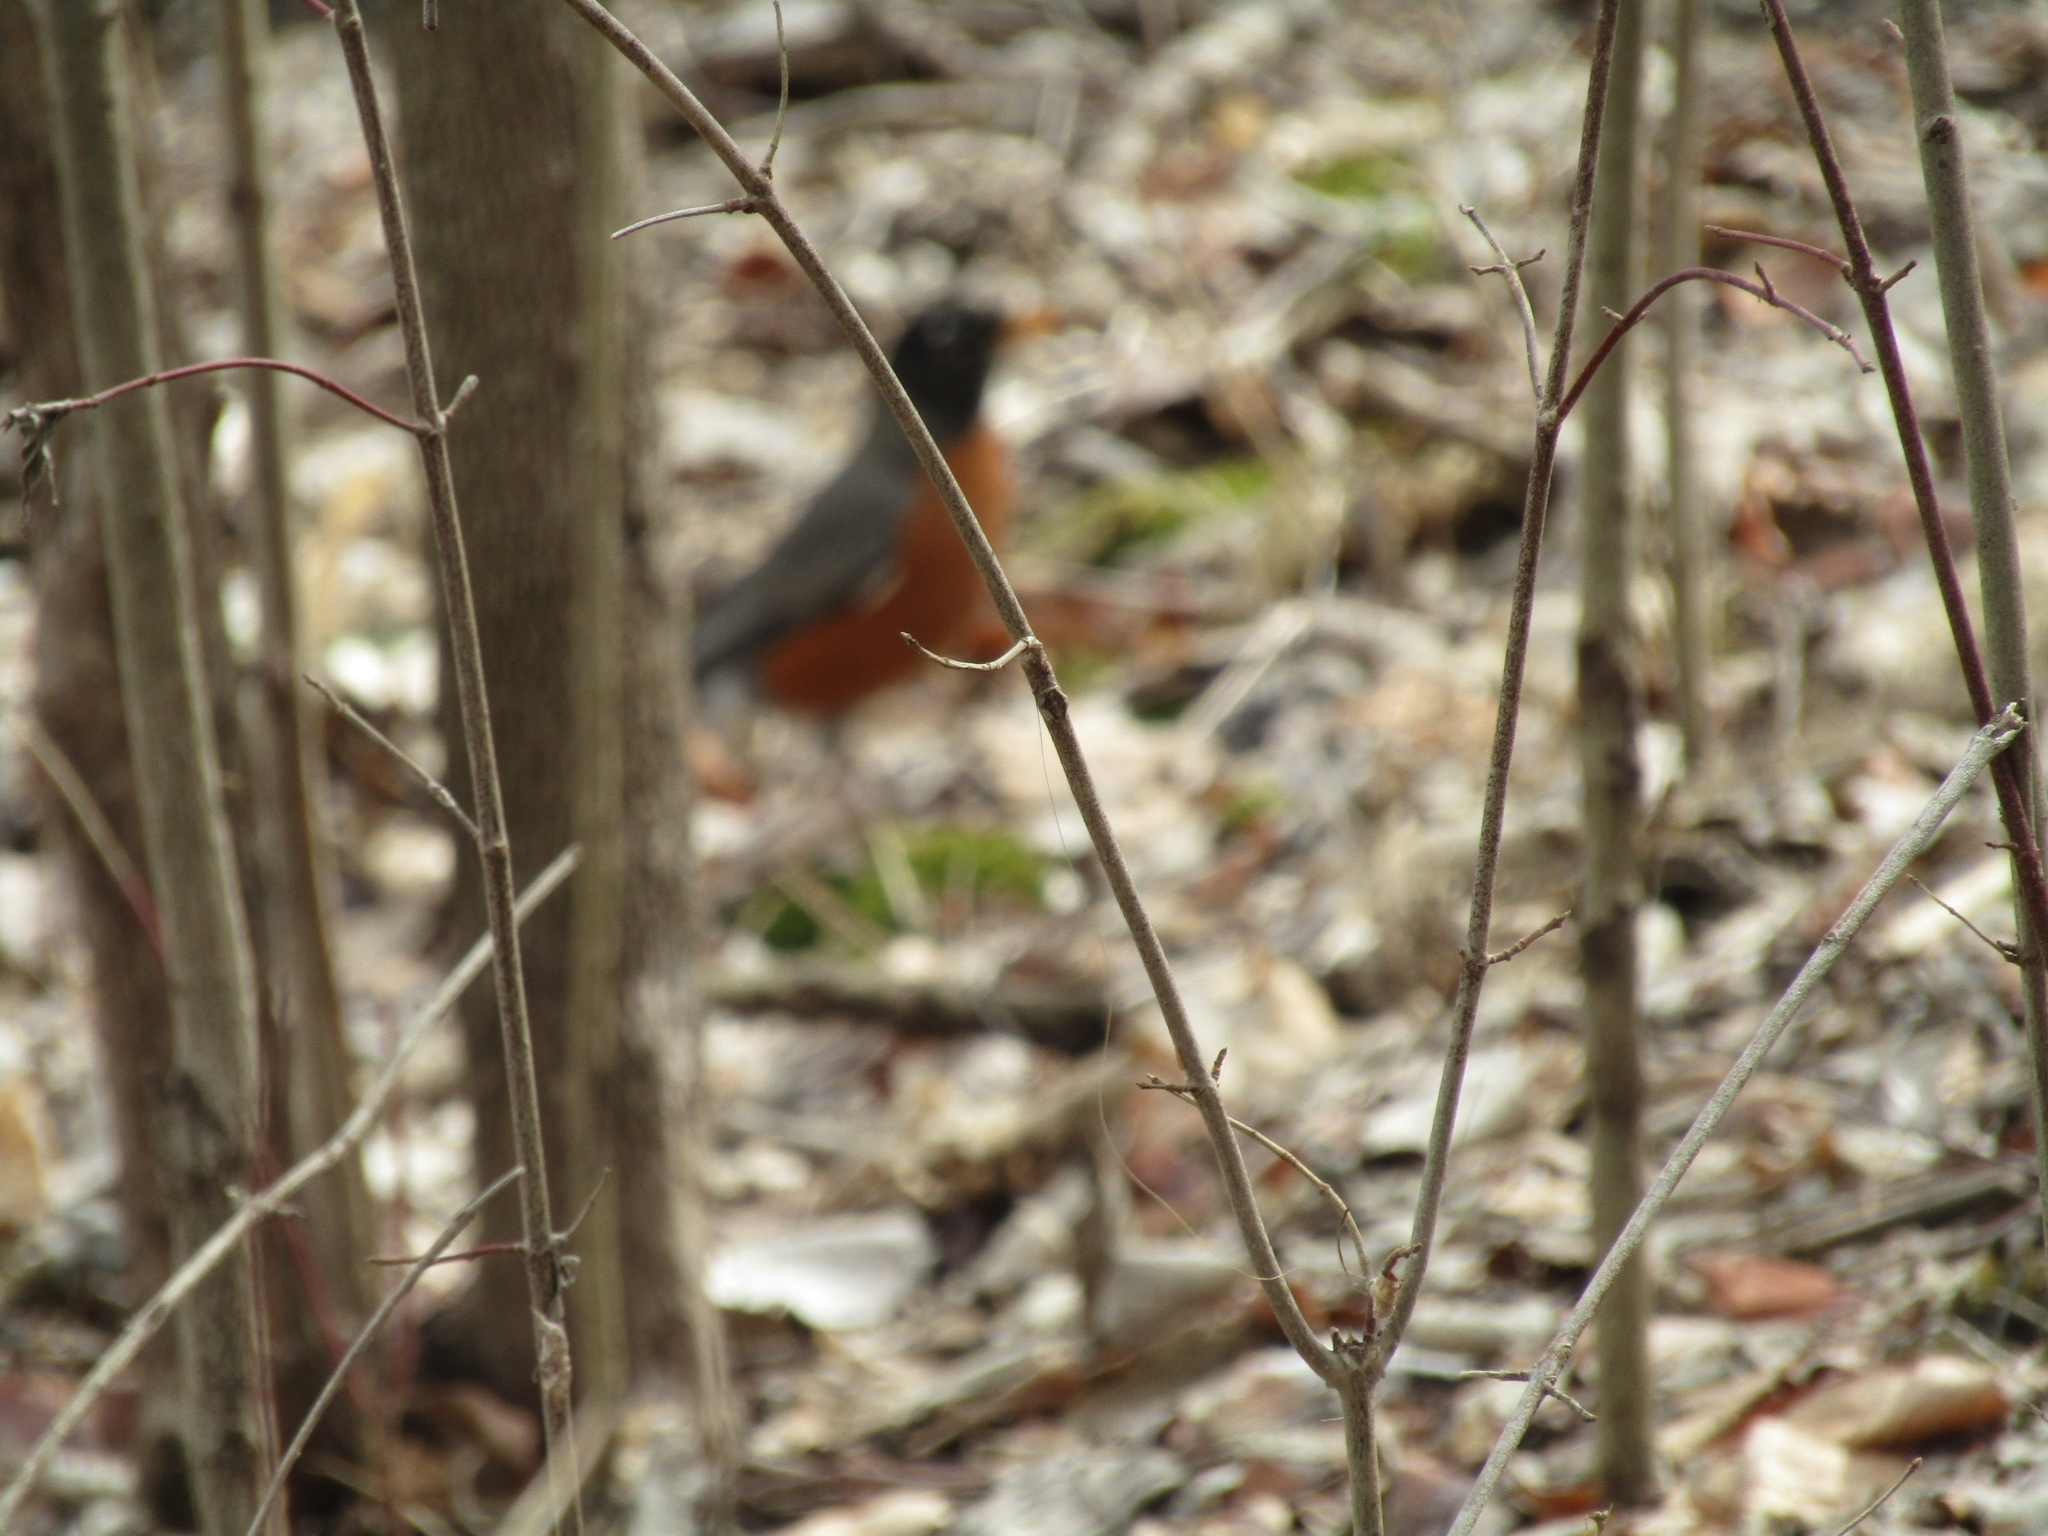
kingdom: Animalia
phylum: Chordata
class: Aves
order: Passeriformes
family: Turdidae
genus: Turdus
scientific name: Turdus migratorius
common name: American robin
